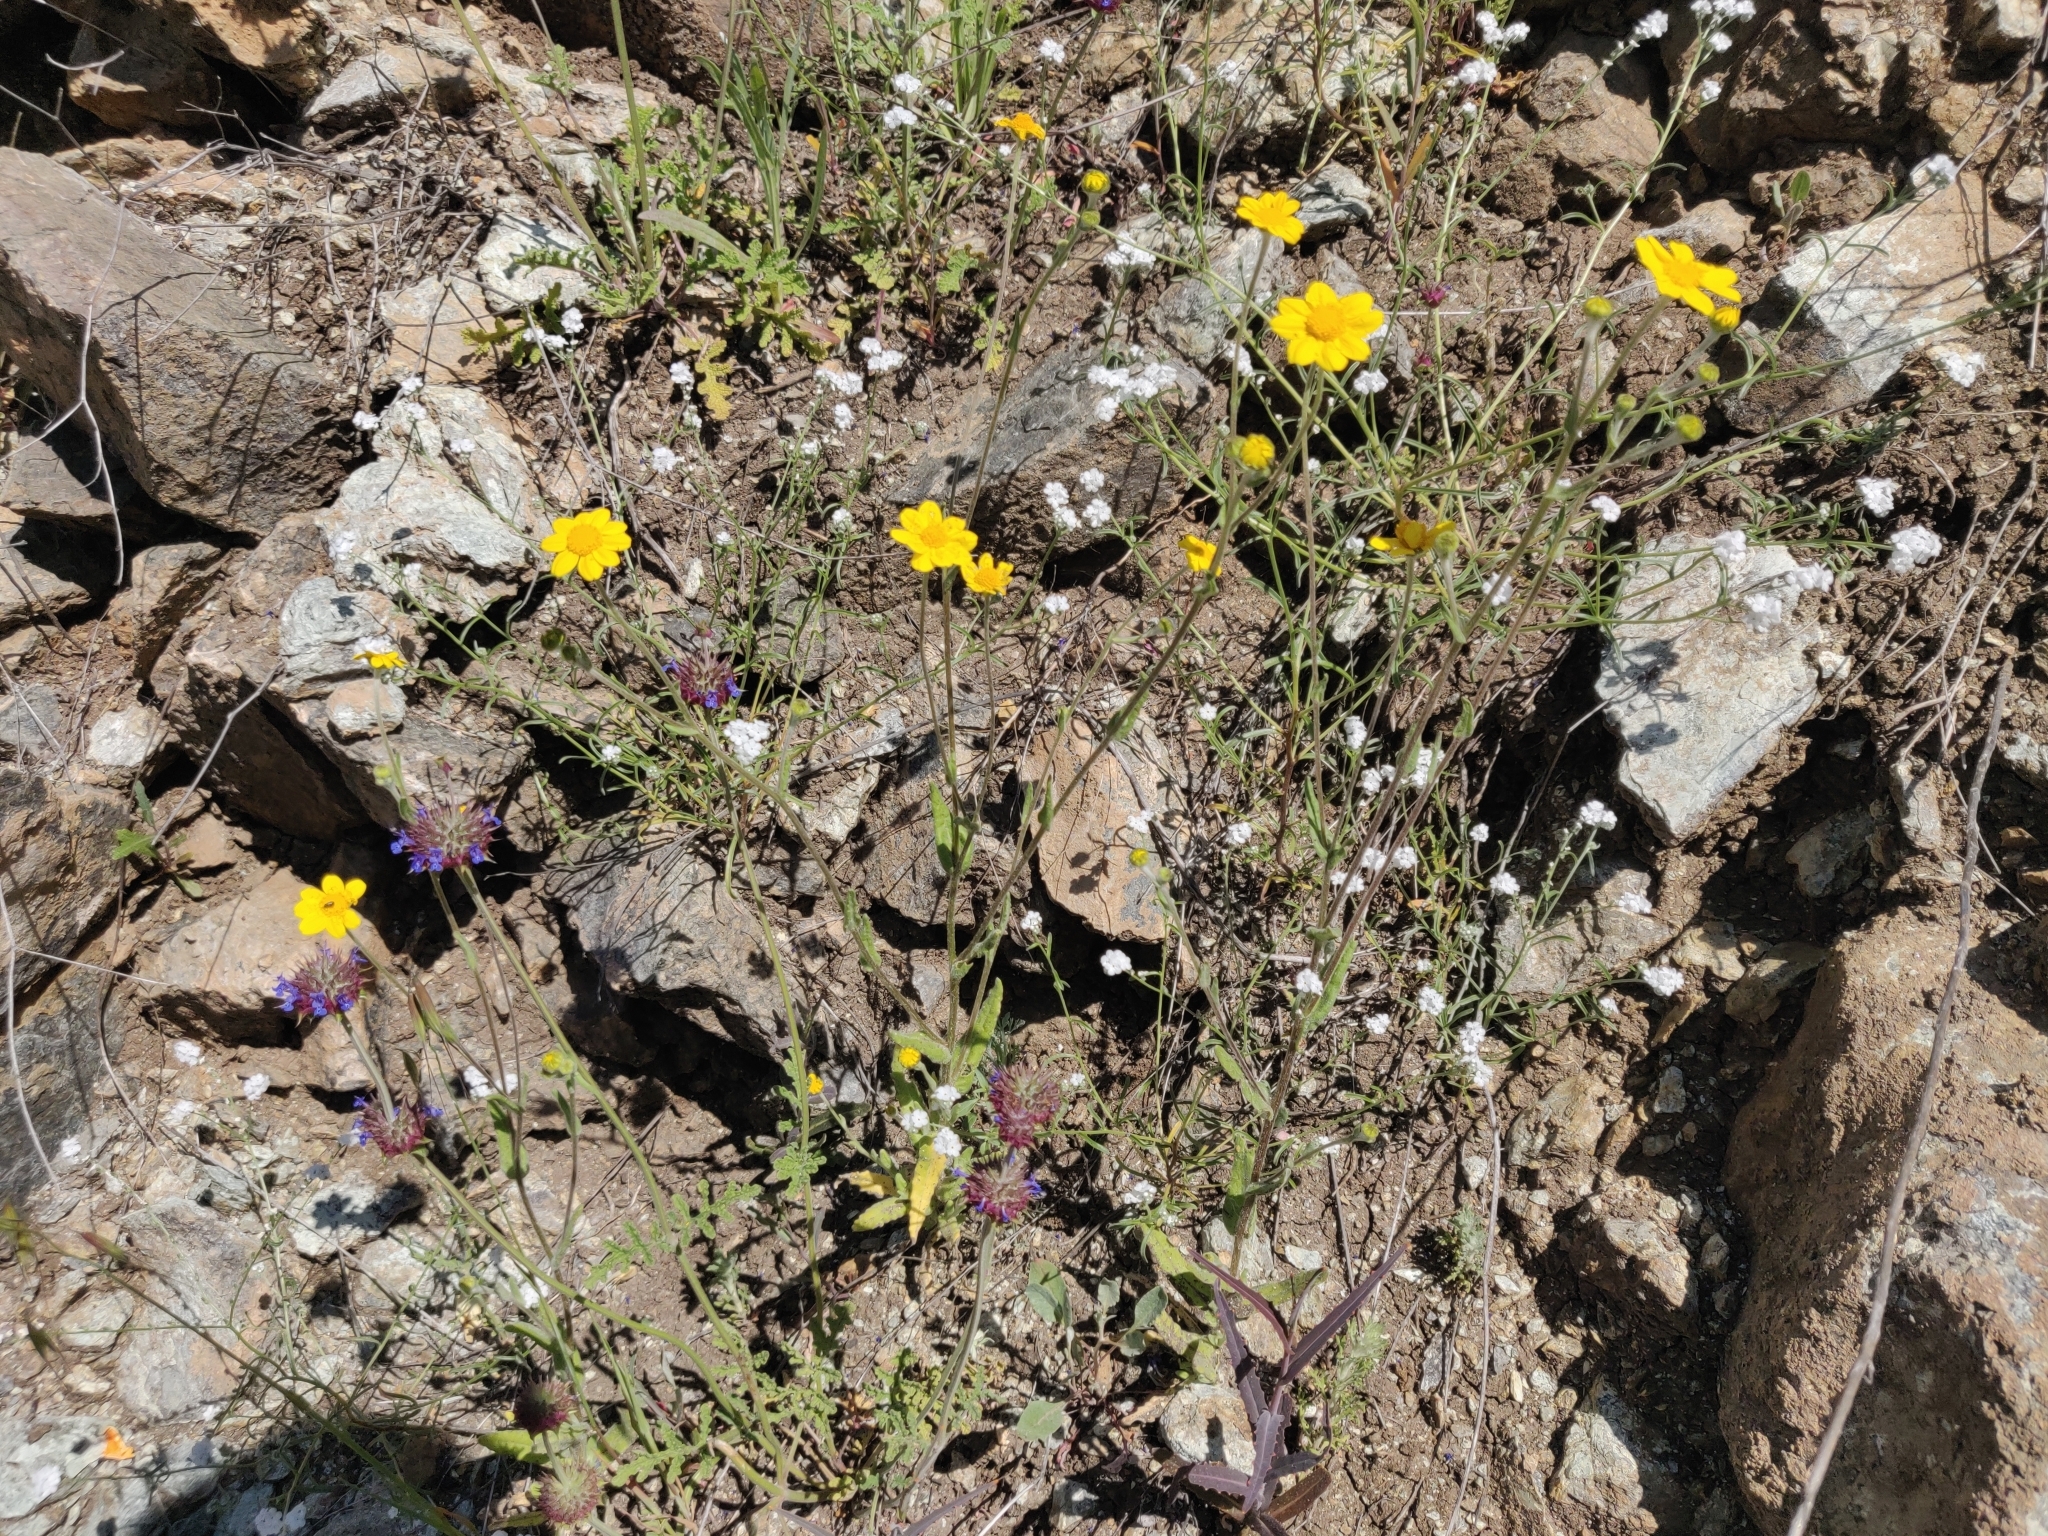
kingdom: Plantae
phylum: Tracheophyta
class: Magnoliopsida
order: Asterales
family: Asteraceae
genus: Monolopia
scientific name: Monolopia gracilens
